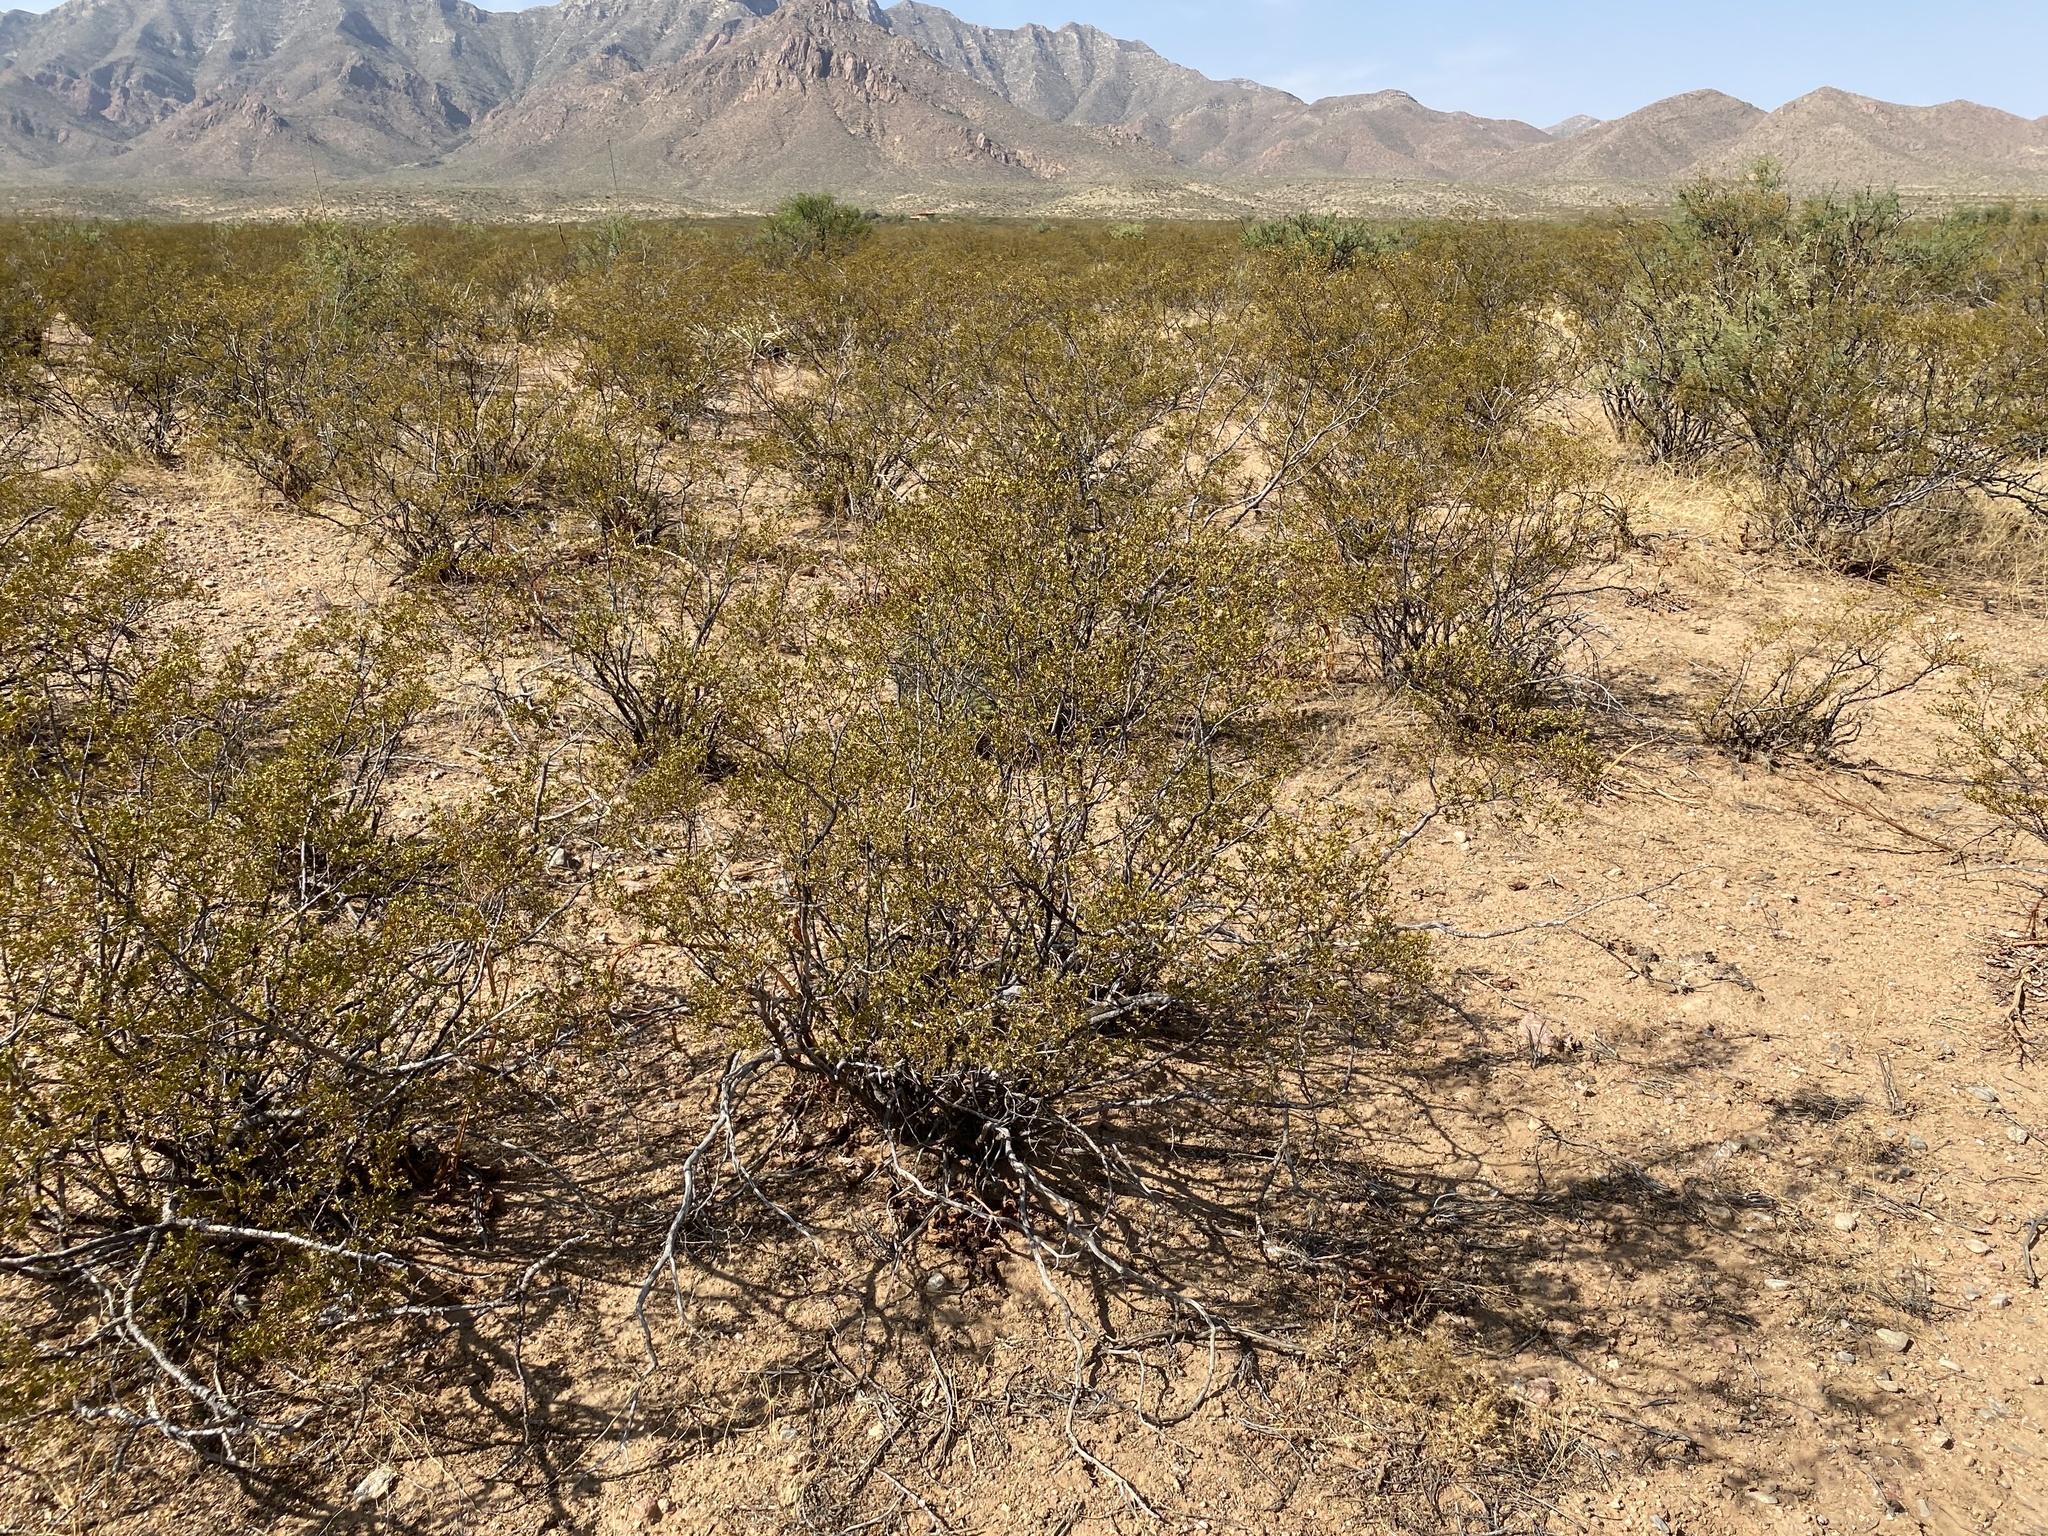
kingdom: Plantae
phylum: Tracheophyta
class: Magnoliopsida
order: Zygophyllales
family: Zygophyllaceae
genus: Larrea
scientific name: Larrea tridentata
